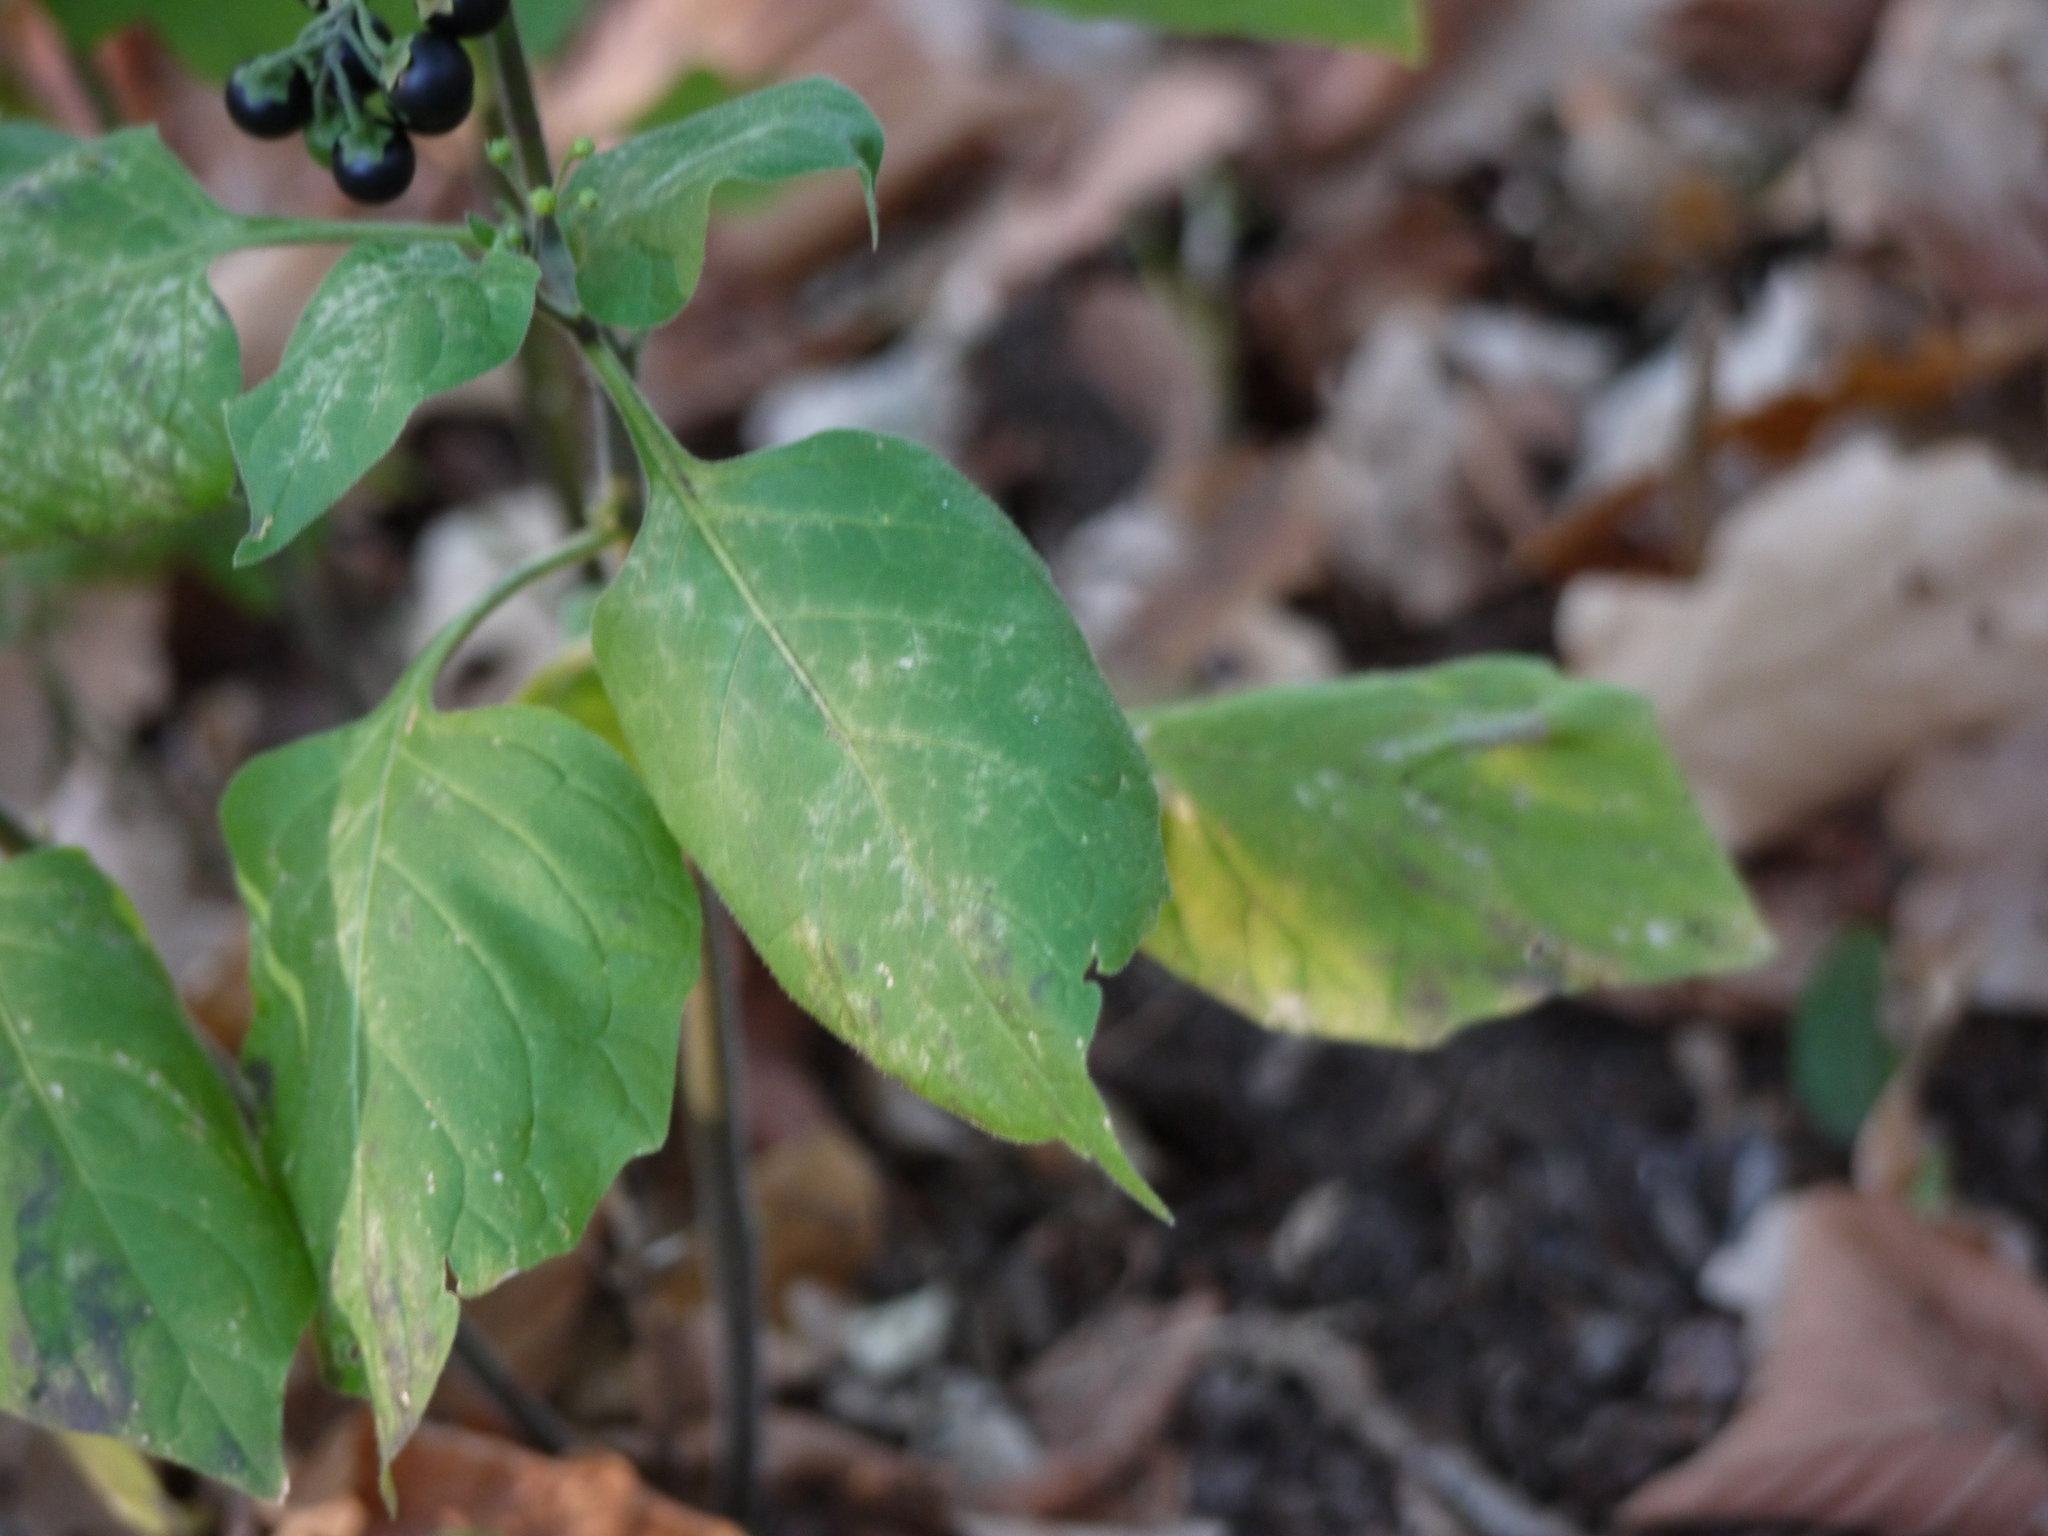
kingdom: Plantae
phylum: Tracheophyta
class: Magnoliopsida
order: Solanales
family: Solanaceae
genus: Solanum
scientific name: Solanum nigrum
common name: Black nightshade
